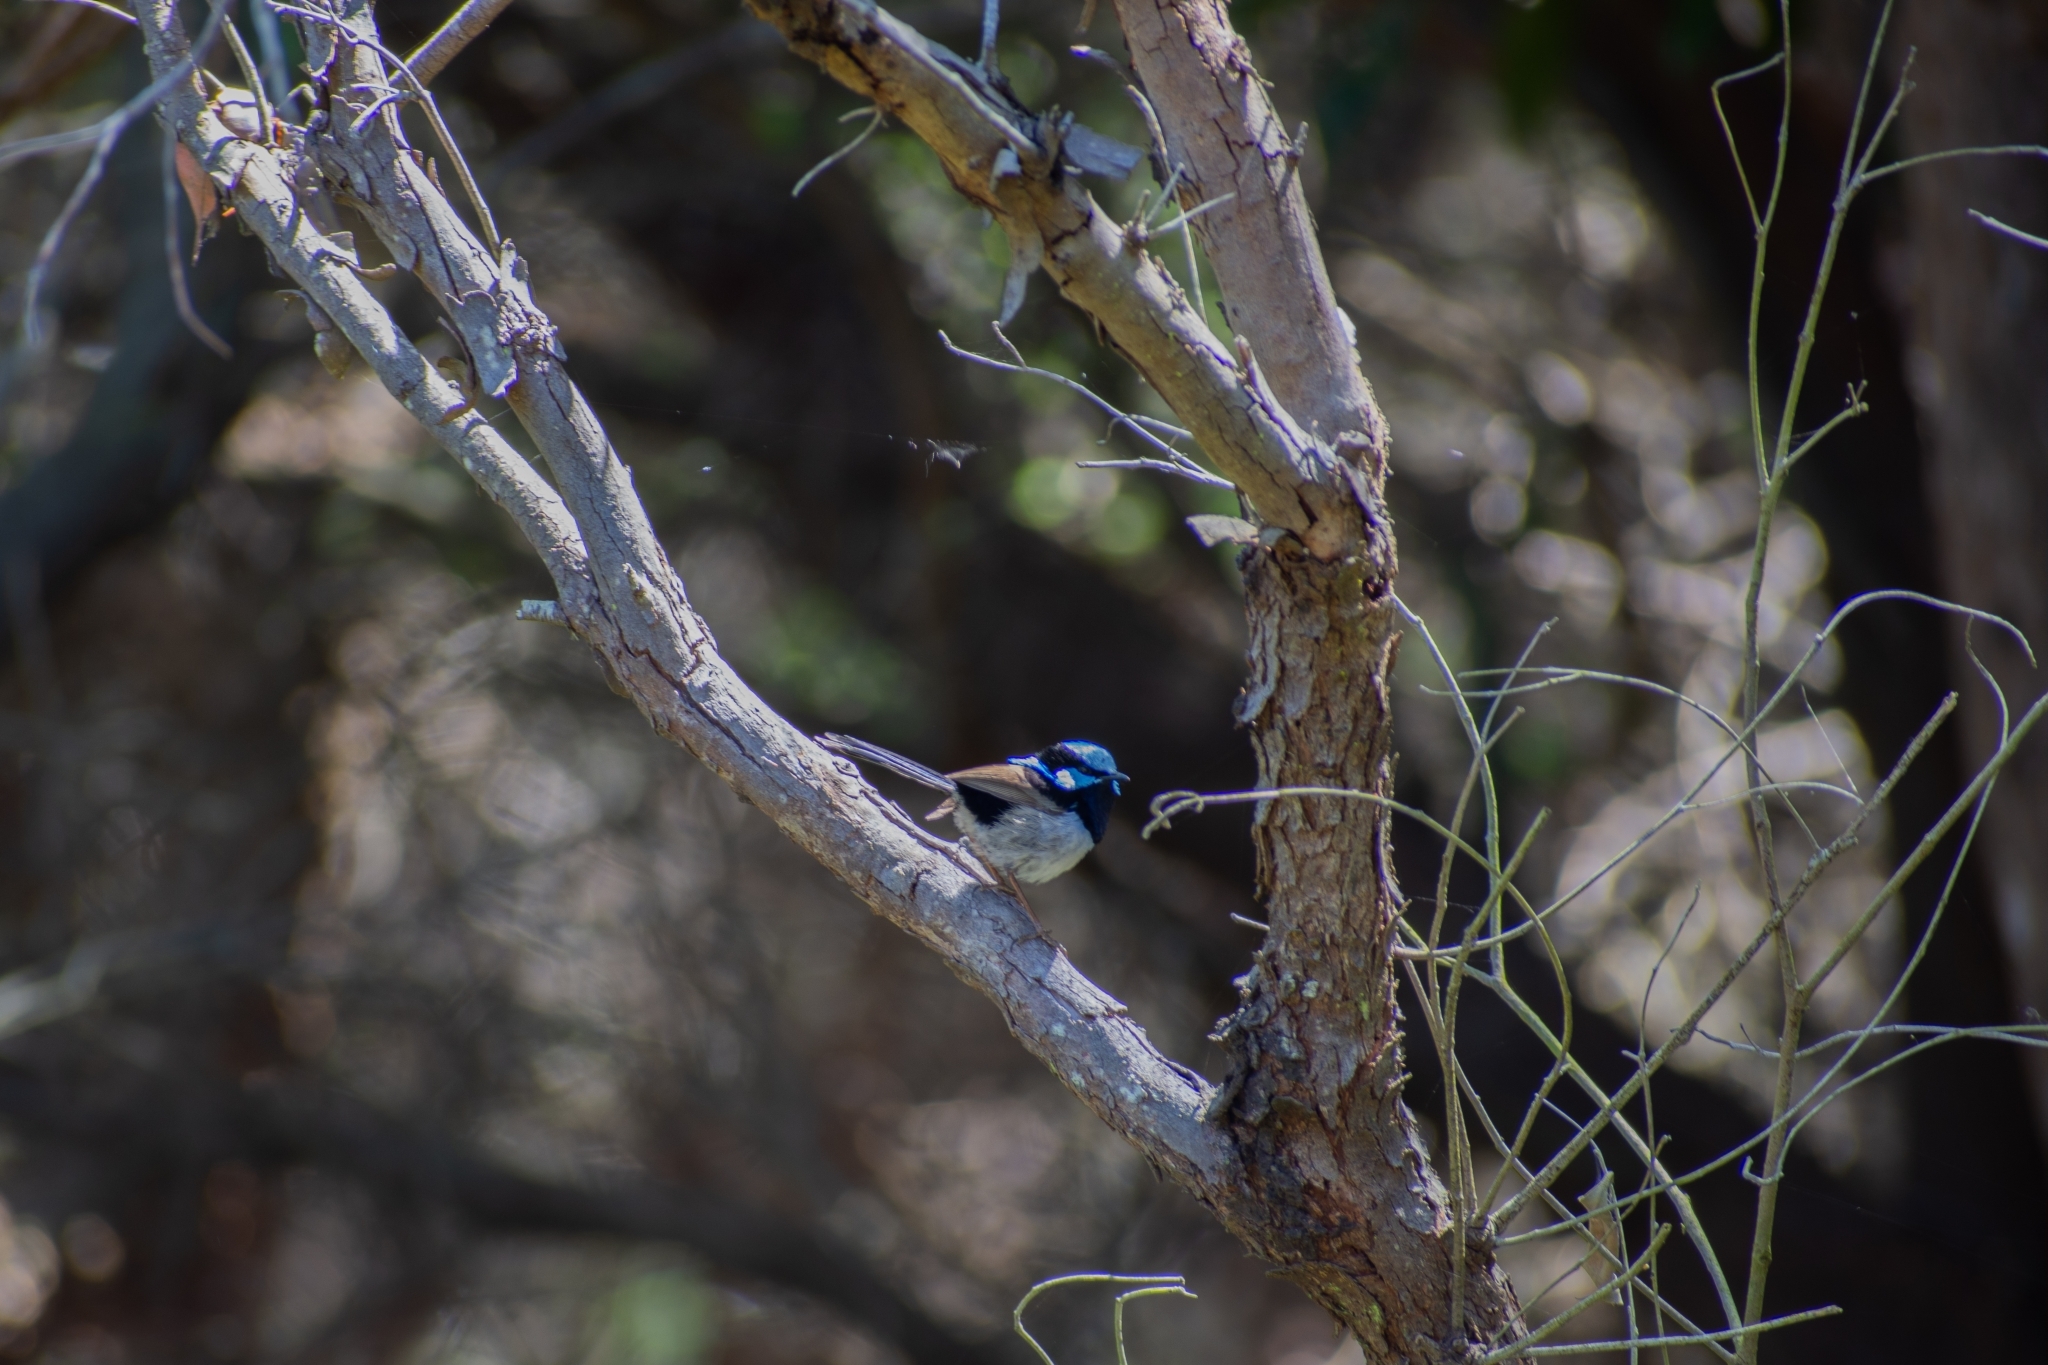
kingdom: Animalia
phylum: Chordata
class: Aves
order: Passeriformes
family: Maluridae
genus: Malurus
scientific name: Malurus cyaneus
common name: Superb fairywren
